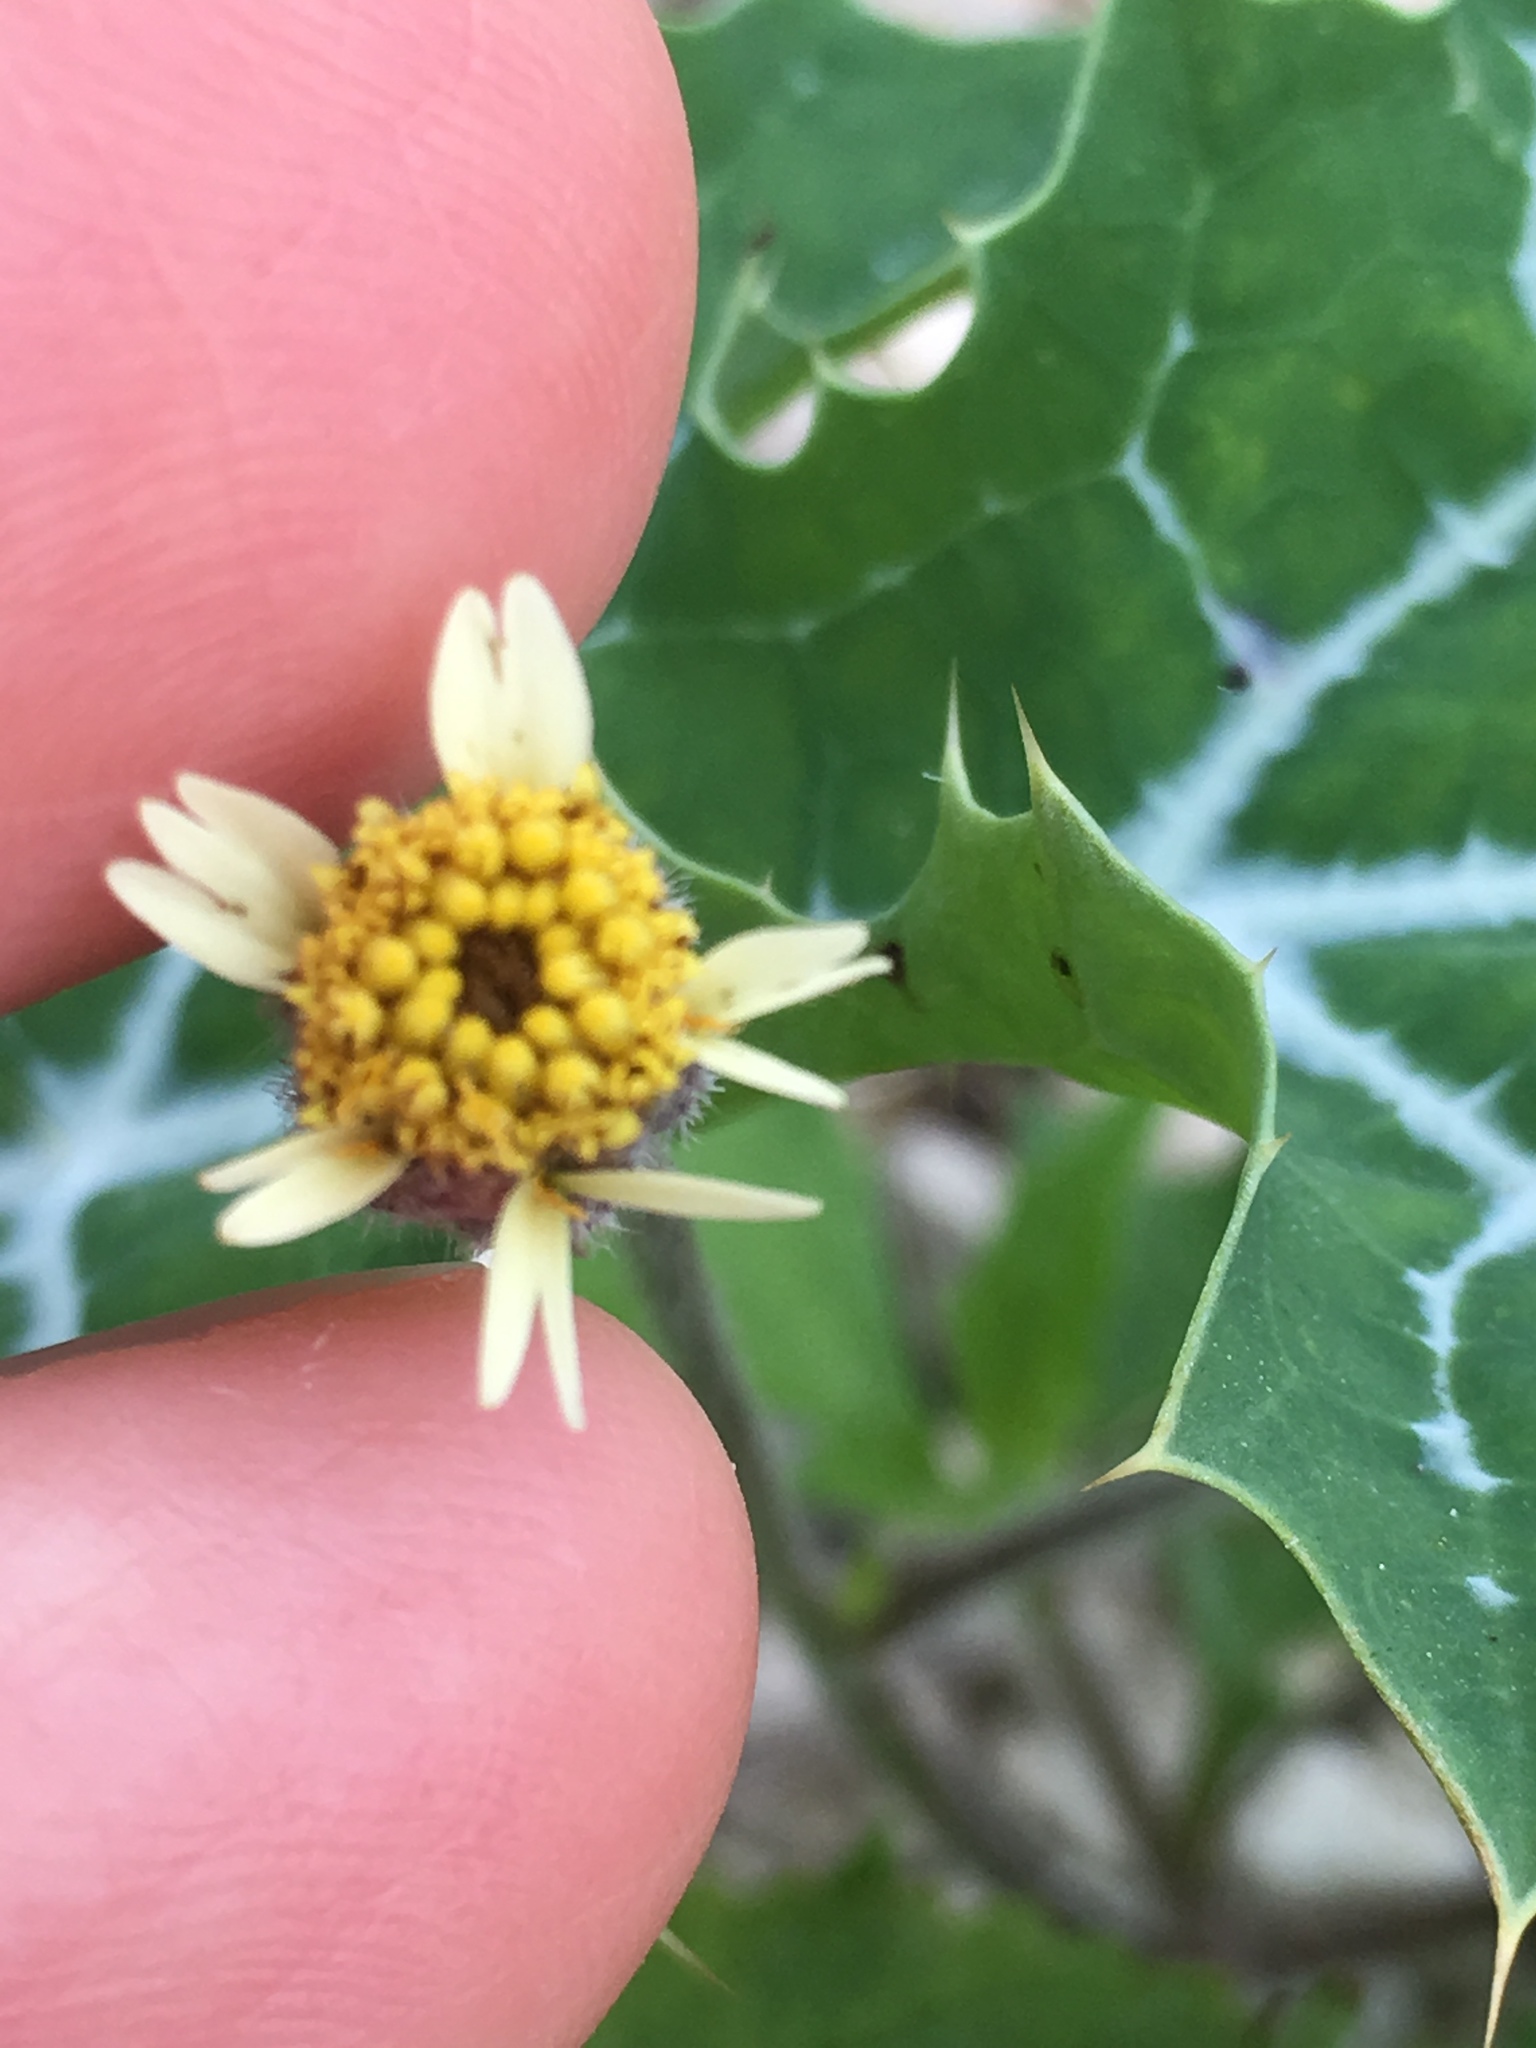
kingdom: Plantae
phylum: Tracheophyta
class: Magnoliopsida
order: Asterales
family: Asteraceae
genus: Tridax
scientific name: Tridax procumbens
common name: Coatbuttons
